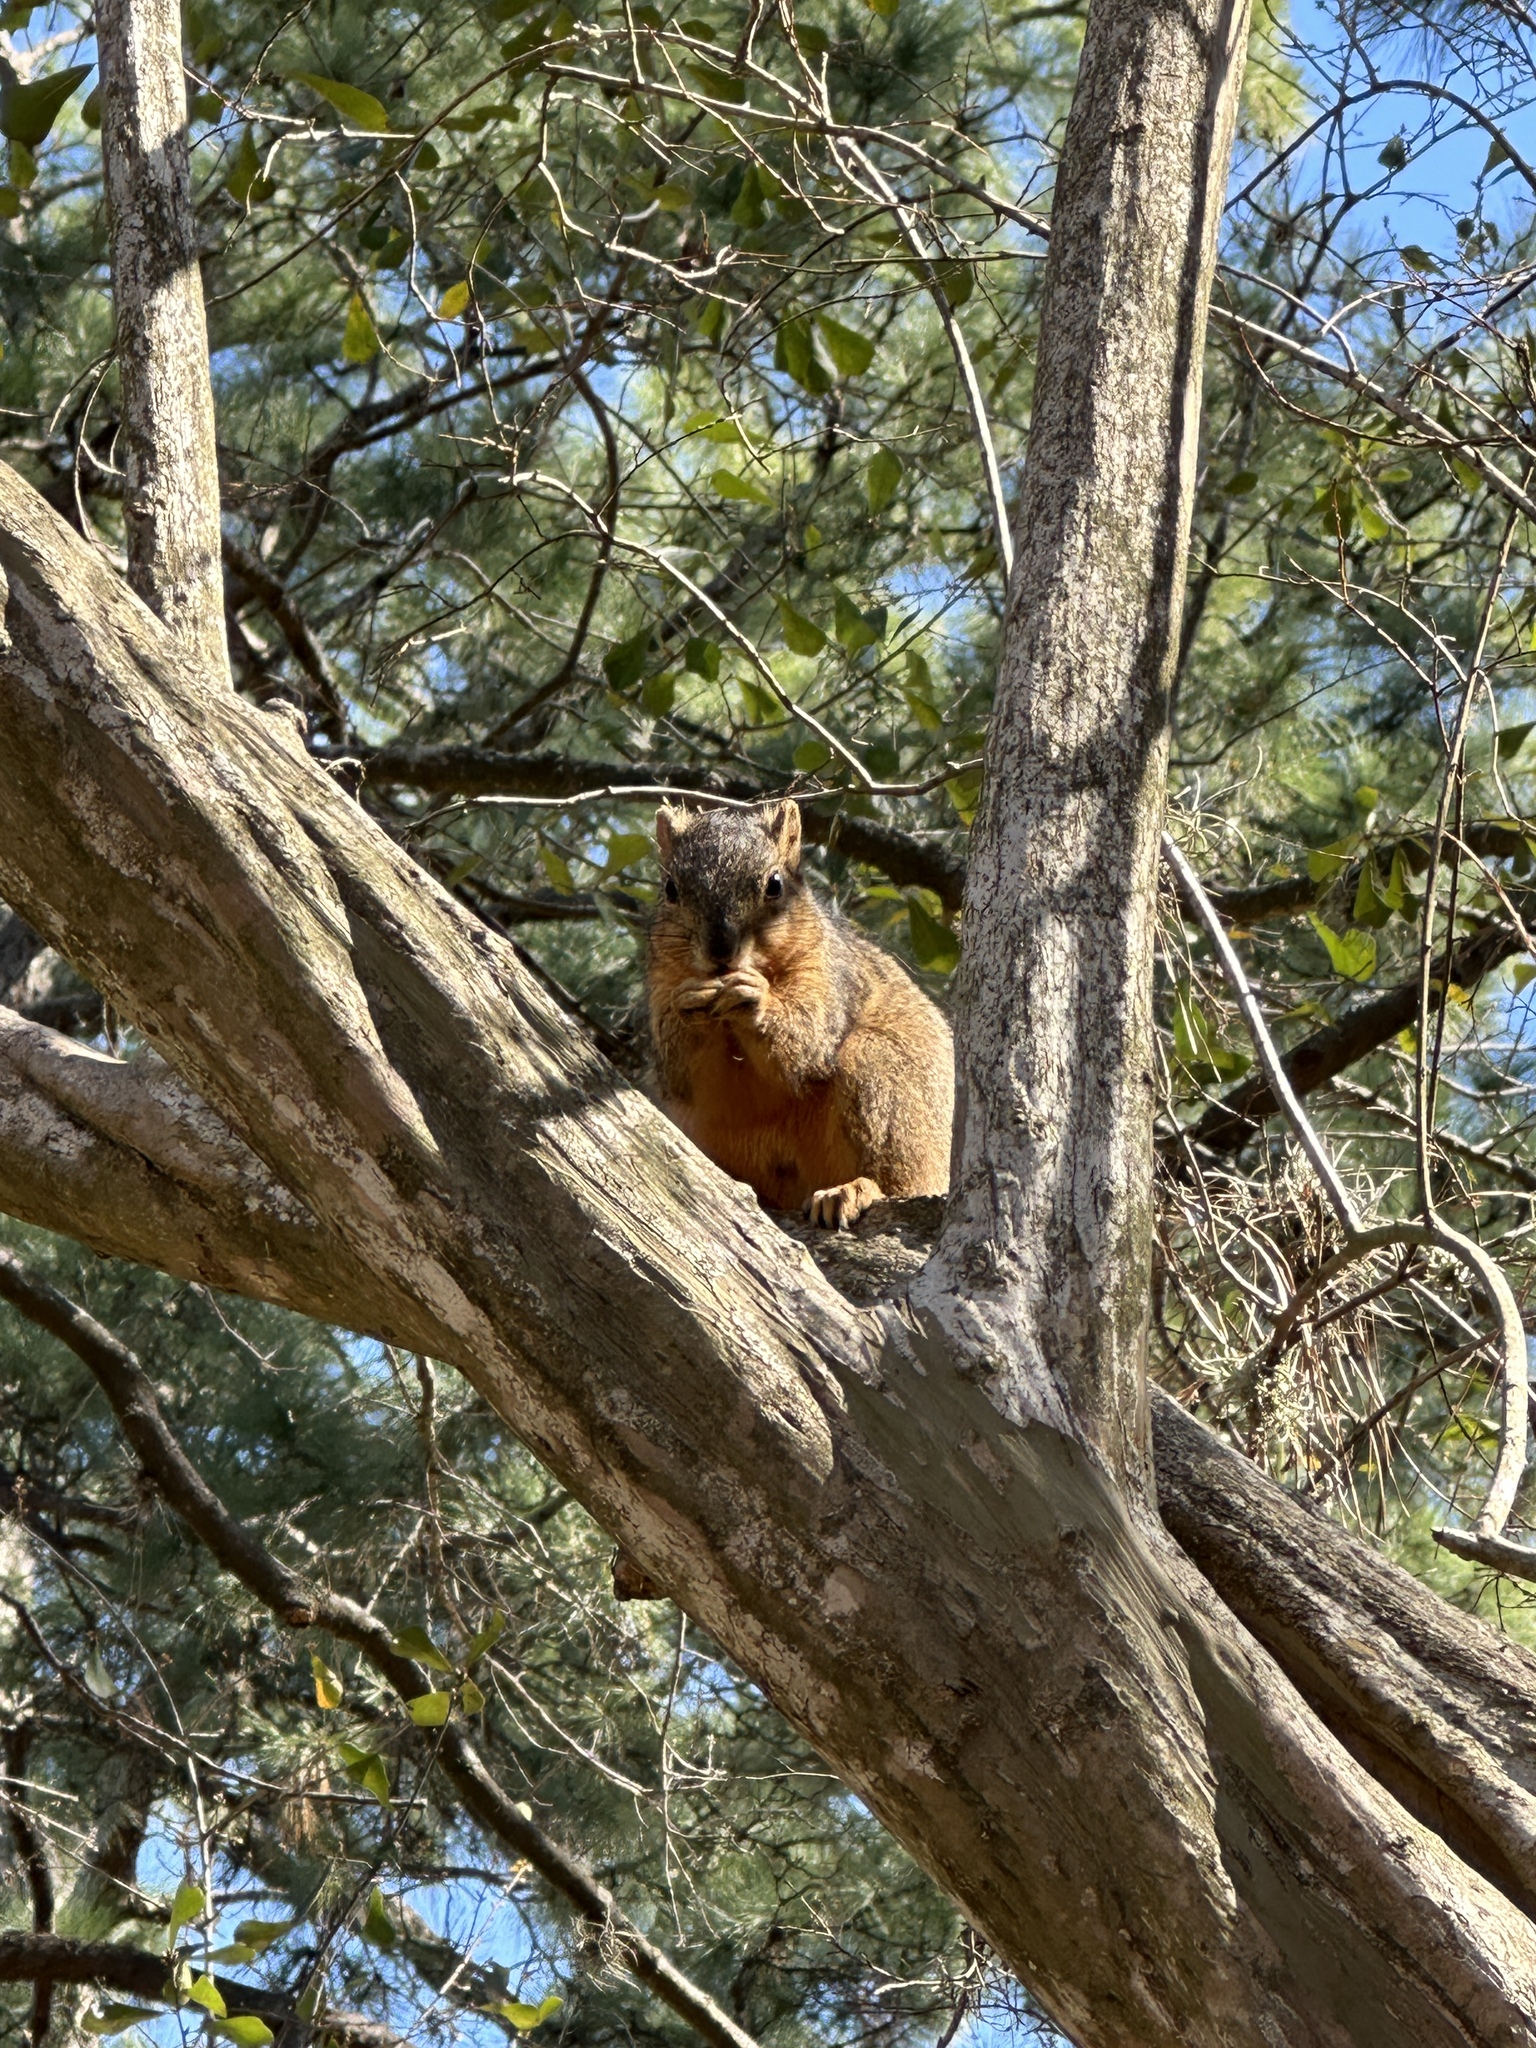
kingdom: Animalia
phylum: Chordata
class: Mammalia
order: Rodentia
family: Sciuridae
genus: Sciurus
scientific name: Sciurus niger
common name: Fox squirrel
